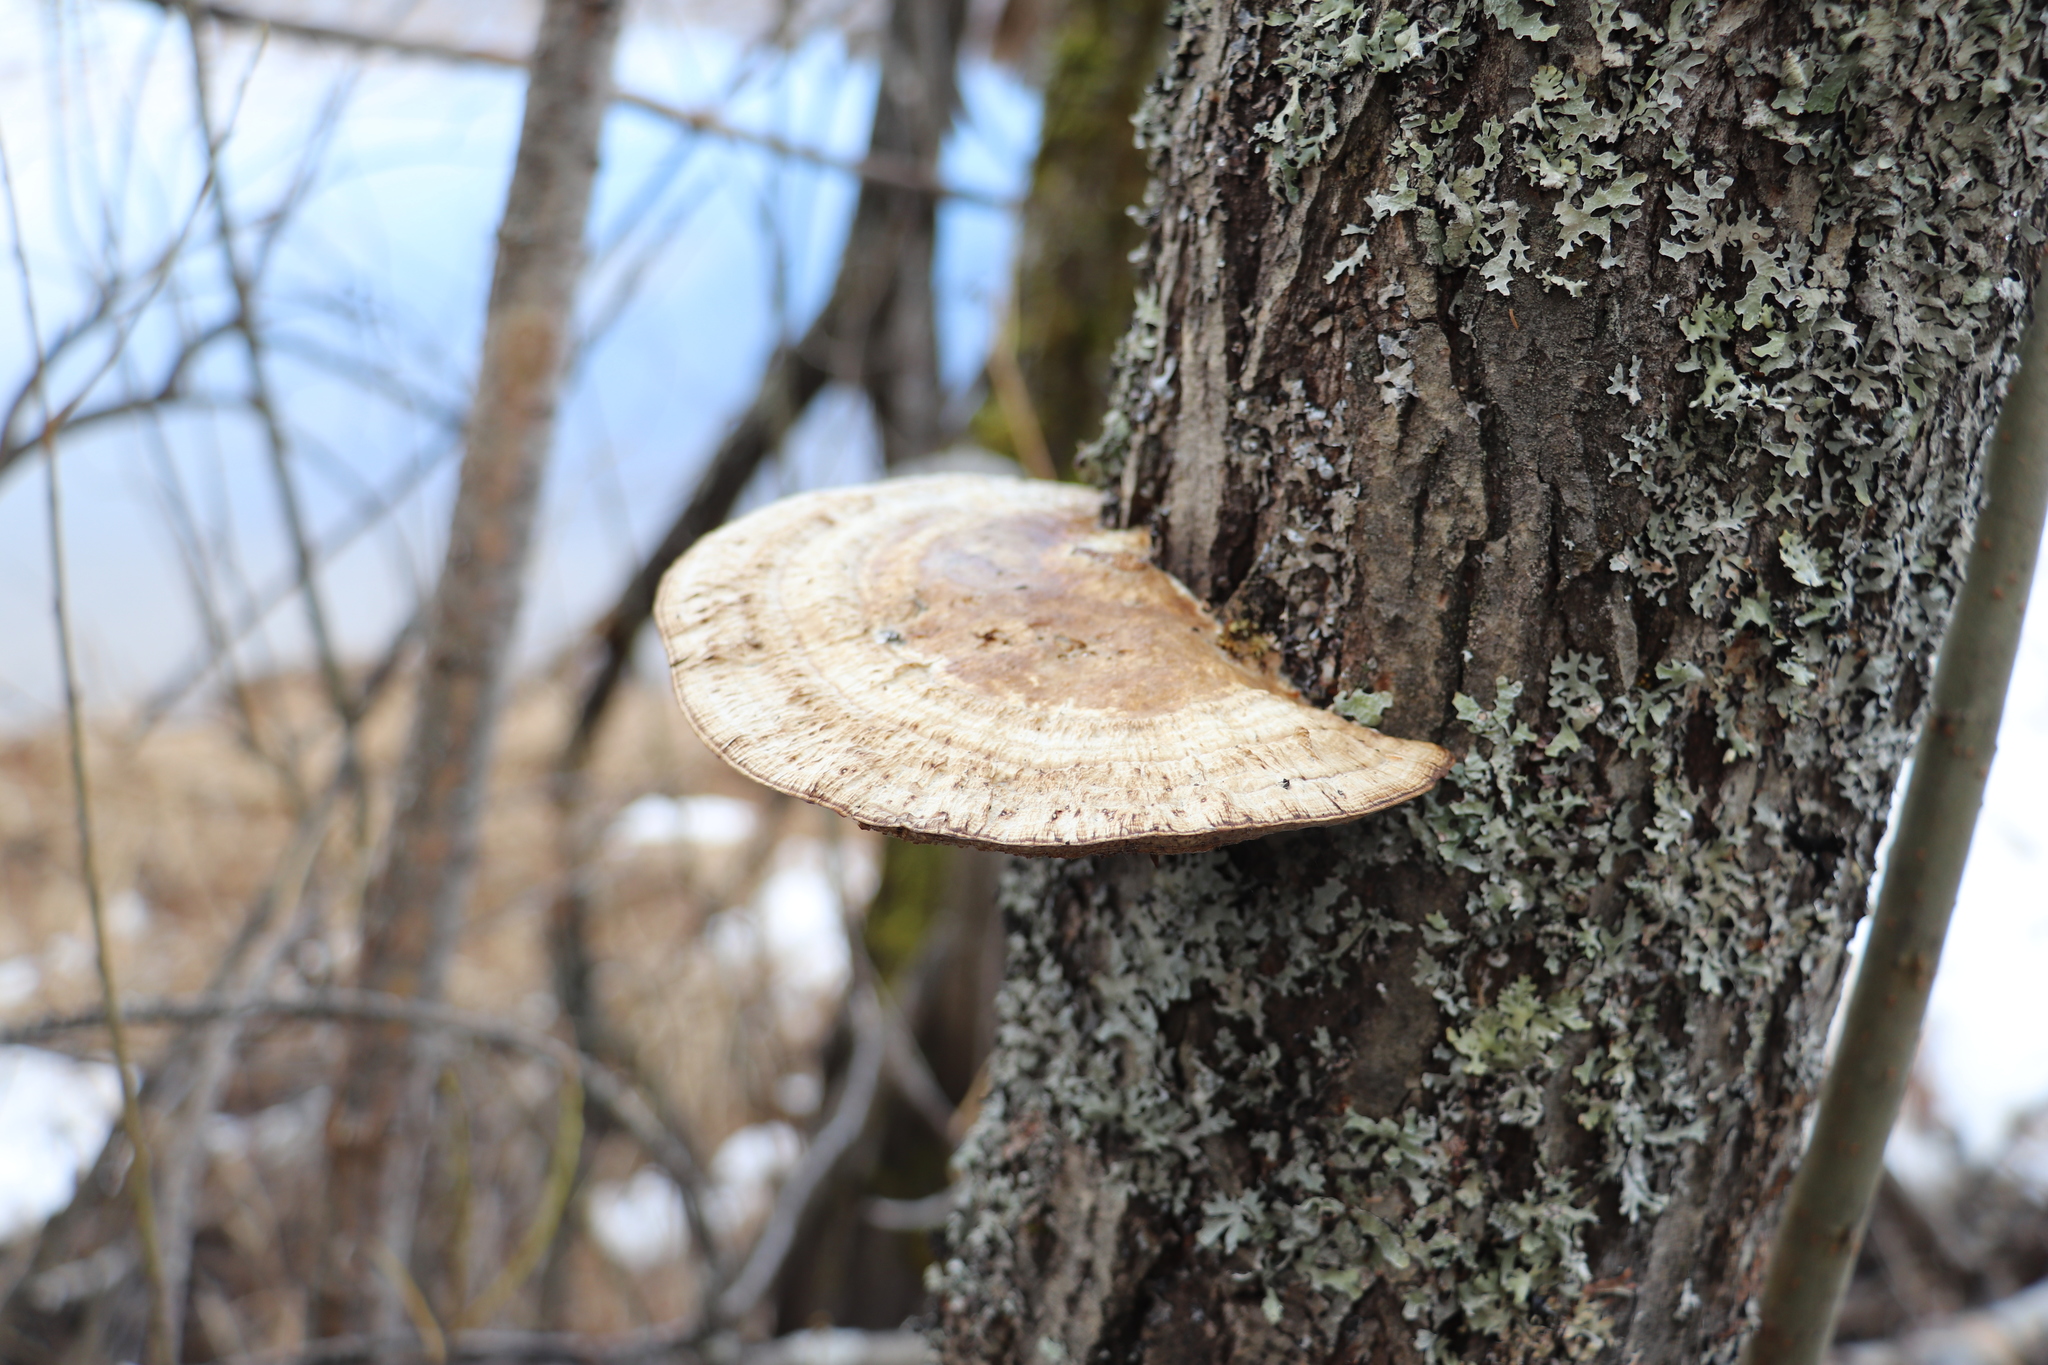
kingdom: Fungi
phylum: Basidiomycota
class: Agaricomycetes
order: Polyporales
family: Polyporaceae
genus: Daedaleopsis
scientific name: Daedaleopsis confragosa
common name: Blushing bracket
